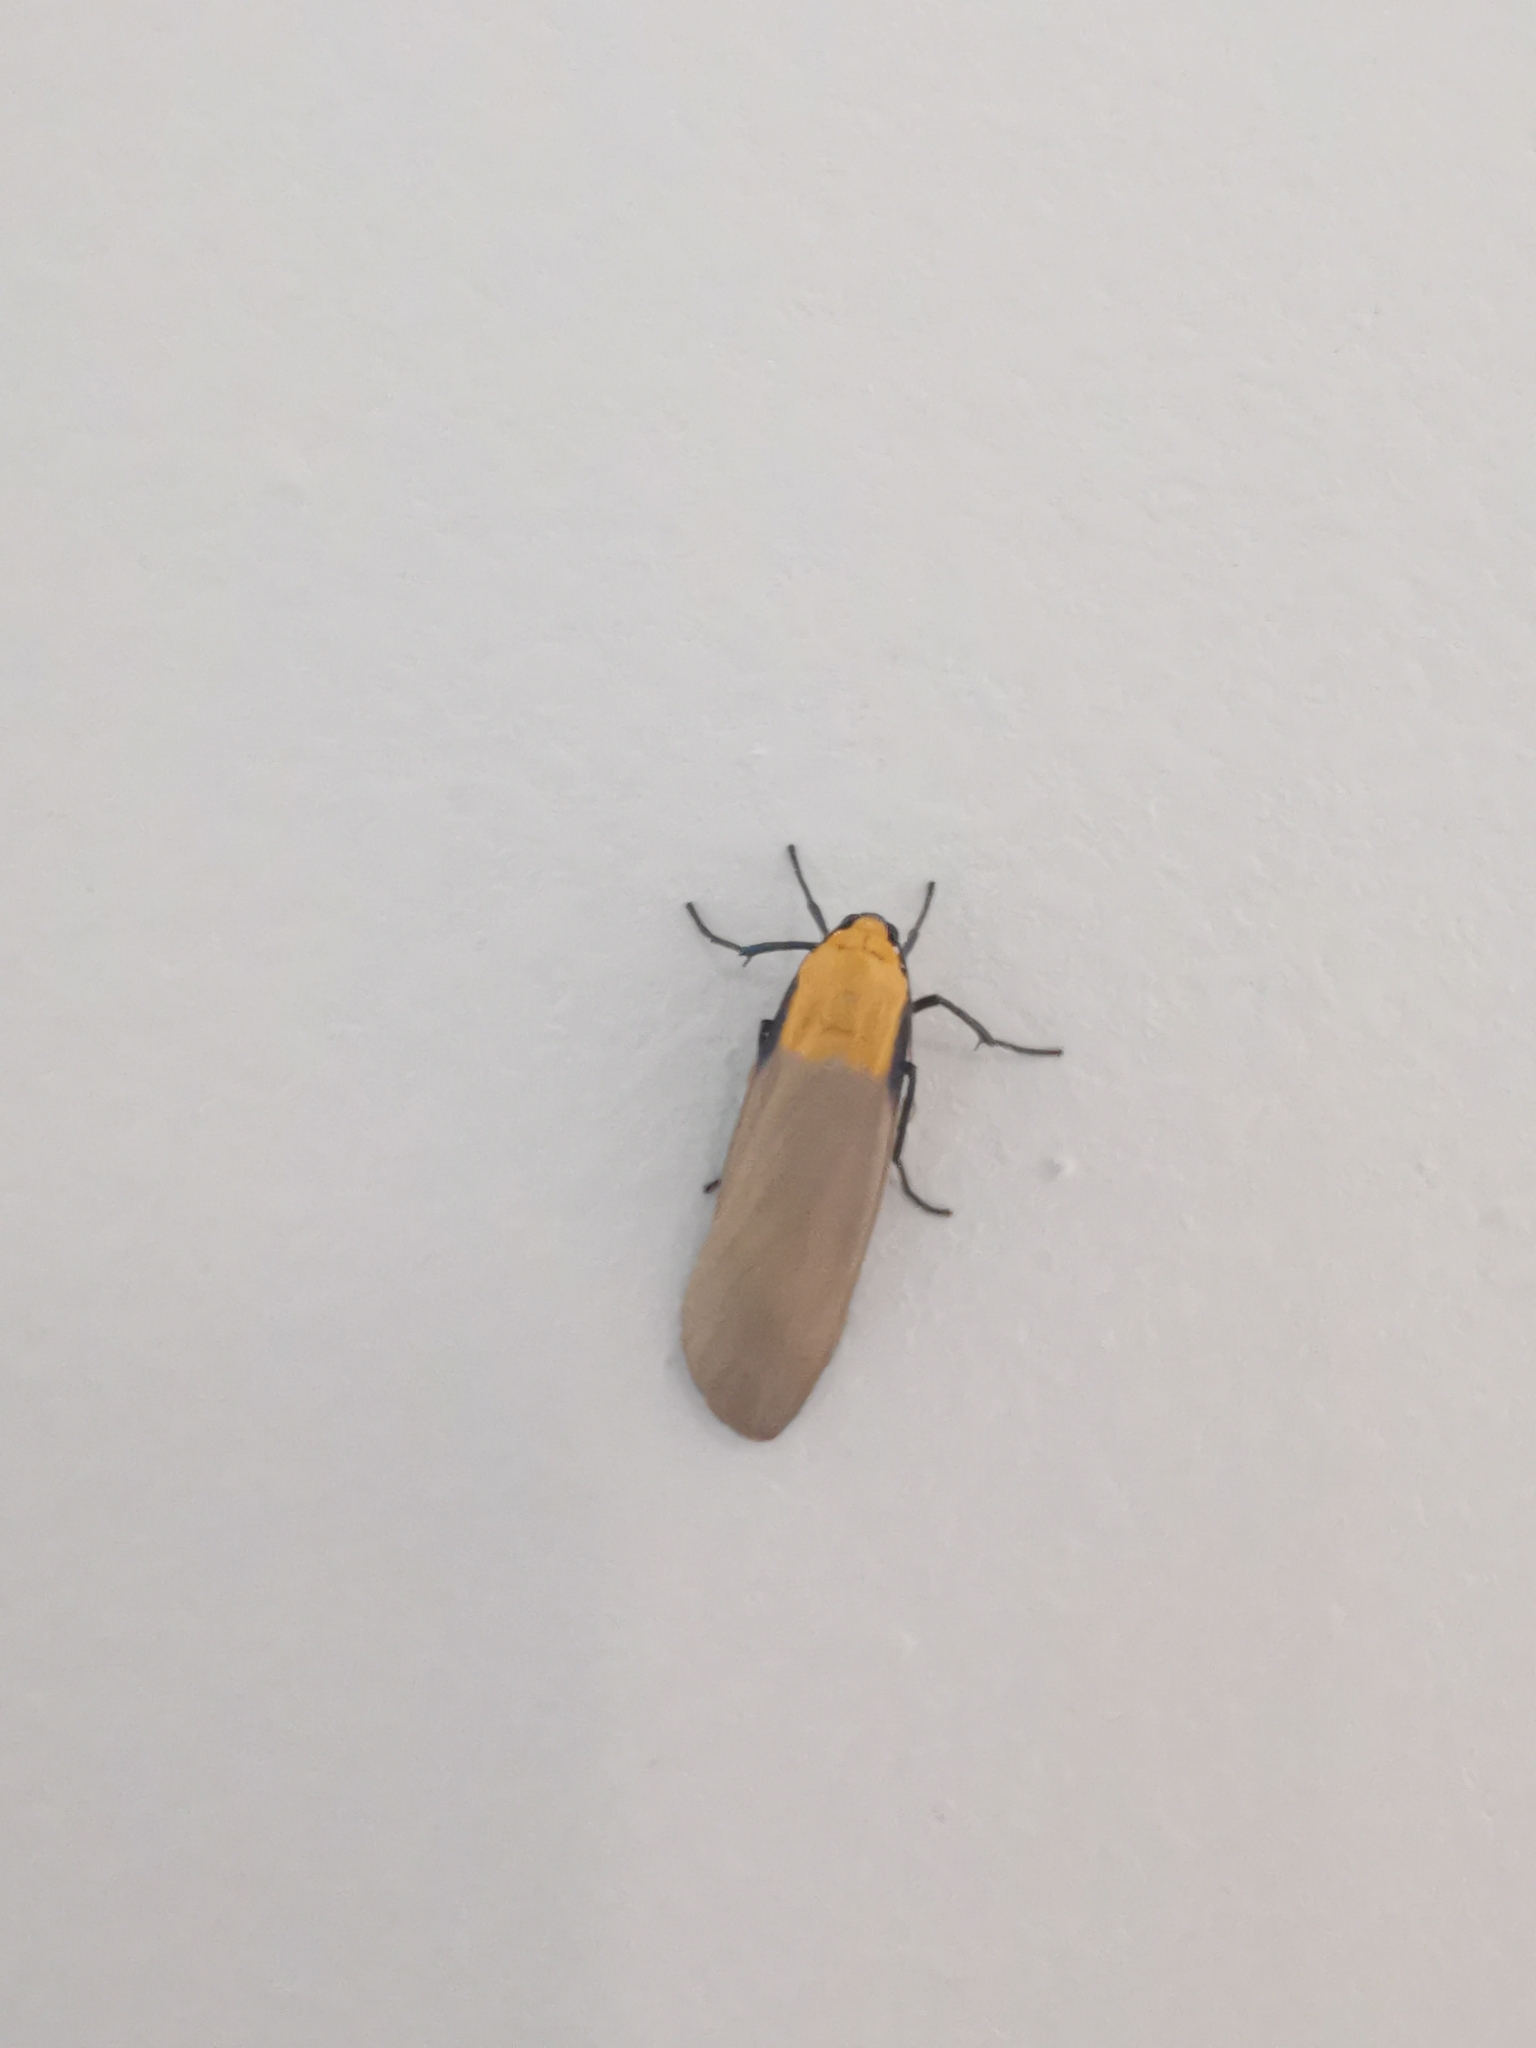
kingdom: Animalia
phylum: Arthropoda
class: Insecta
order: Lepidoptera
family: Erebidae
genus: Lithosia
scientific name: Lithosia quadra
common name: Four-spotted footman
